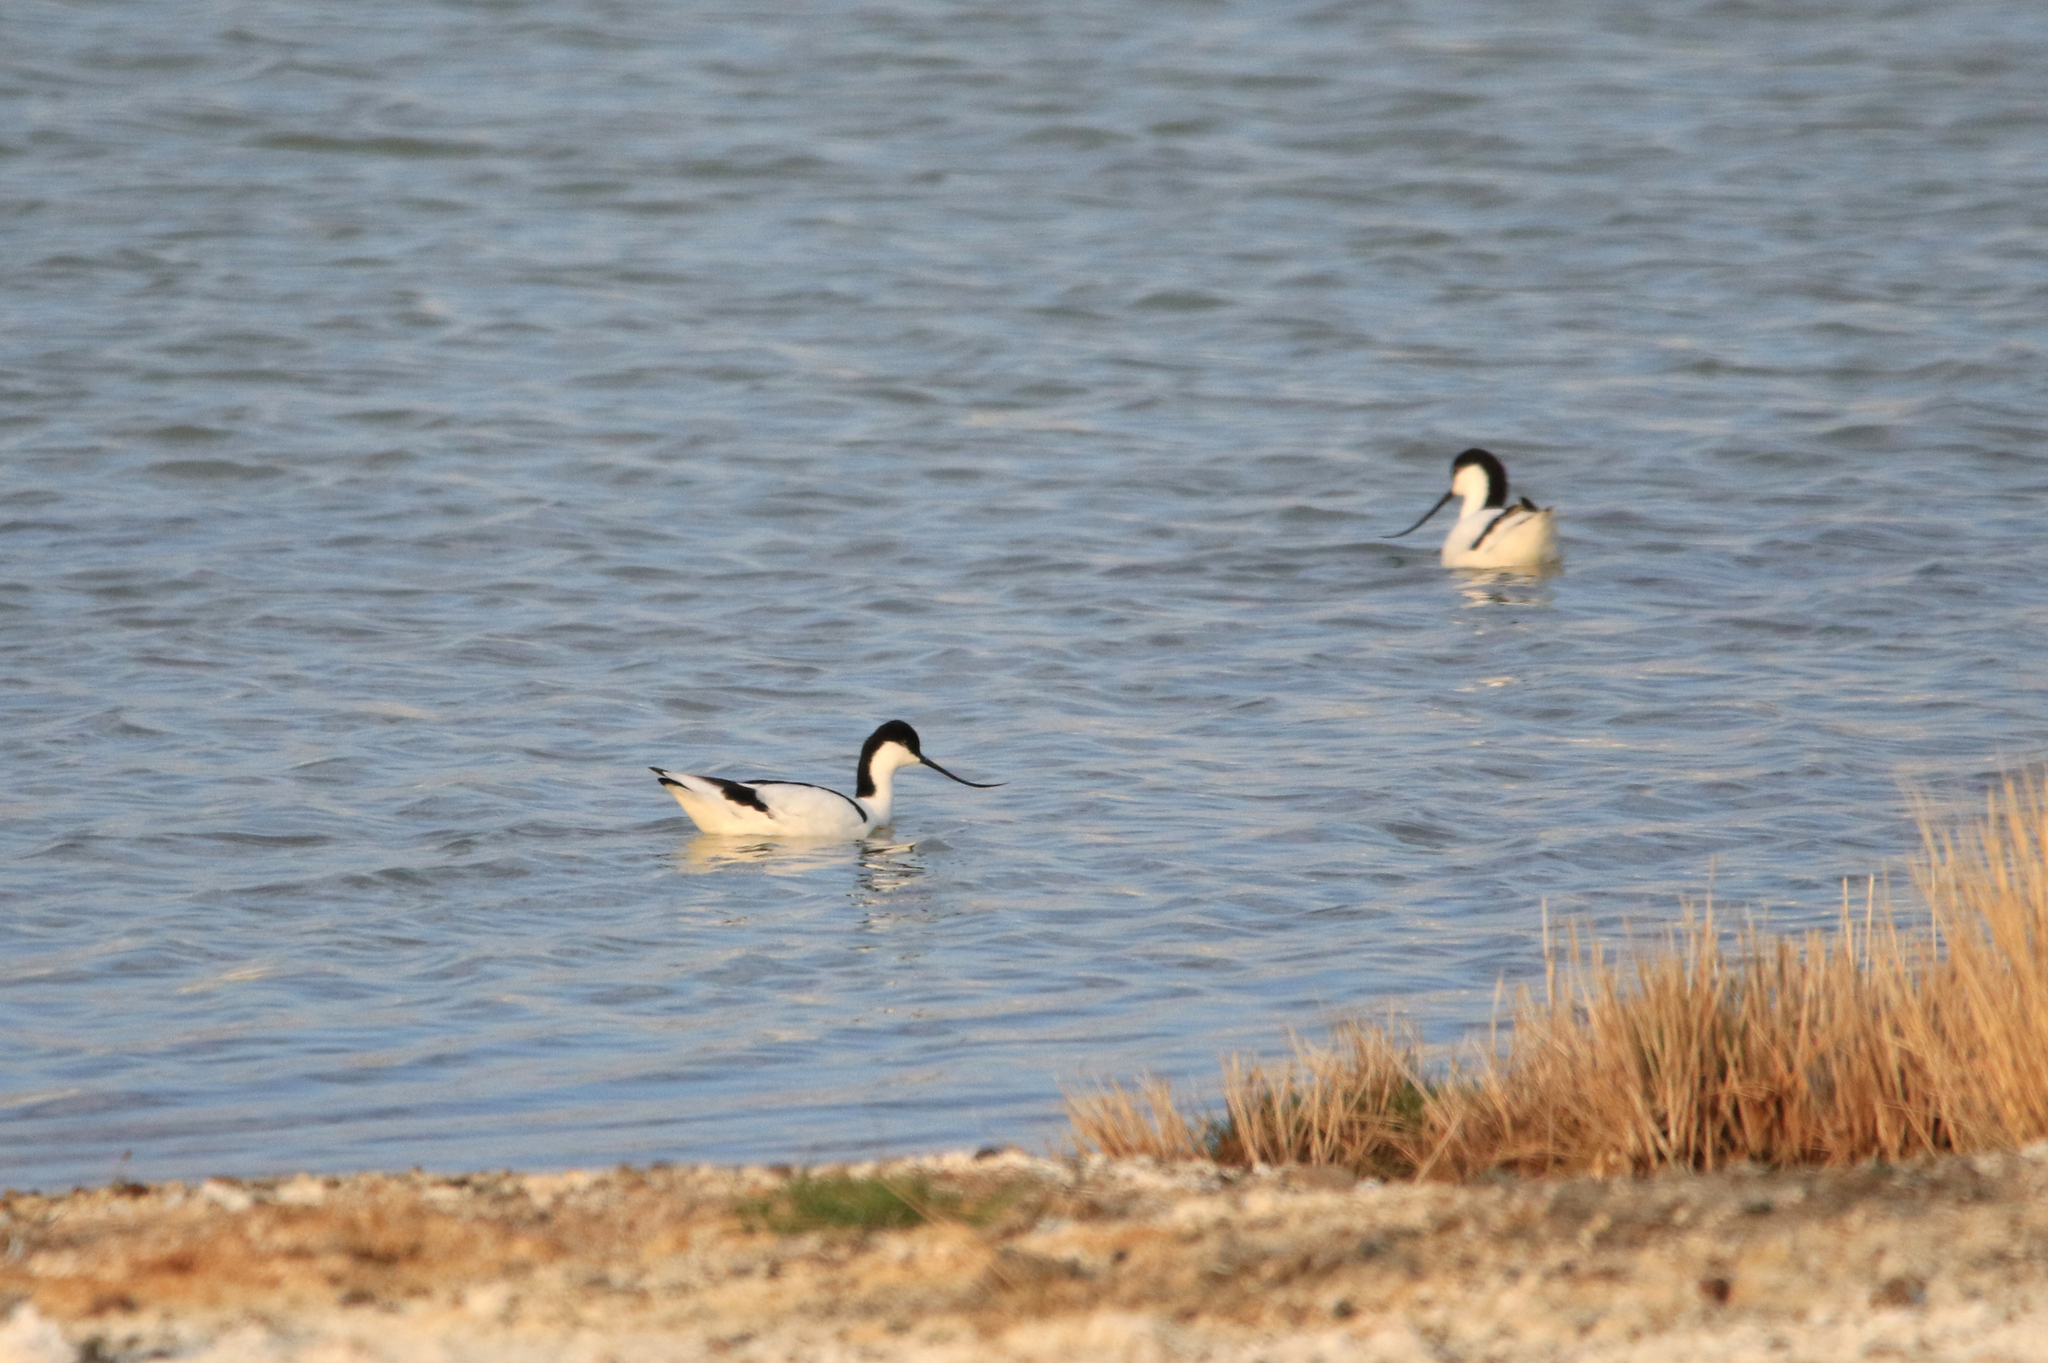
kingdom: Animalia
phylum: Chordata
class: Aves
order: Charadriiformes
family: Recurvirostridae
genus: Recurvirostra
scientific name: Recurvirostra avosetta
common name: Pied avocet
